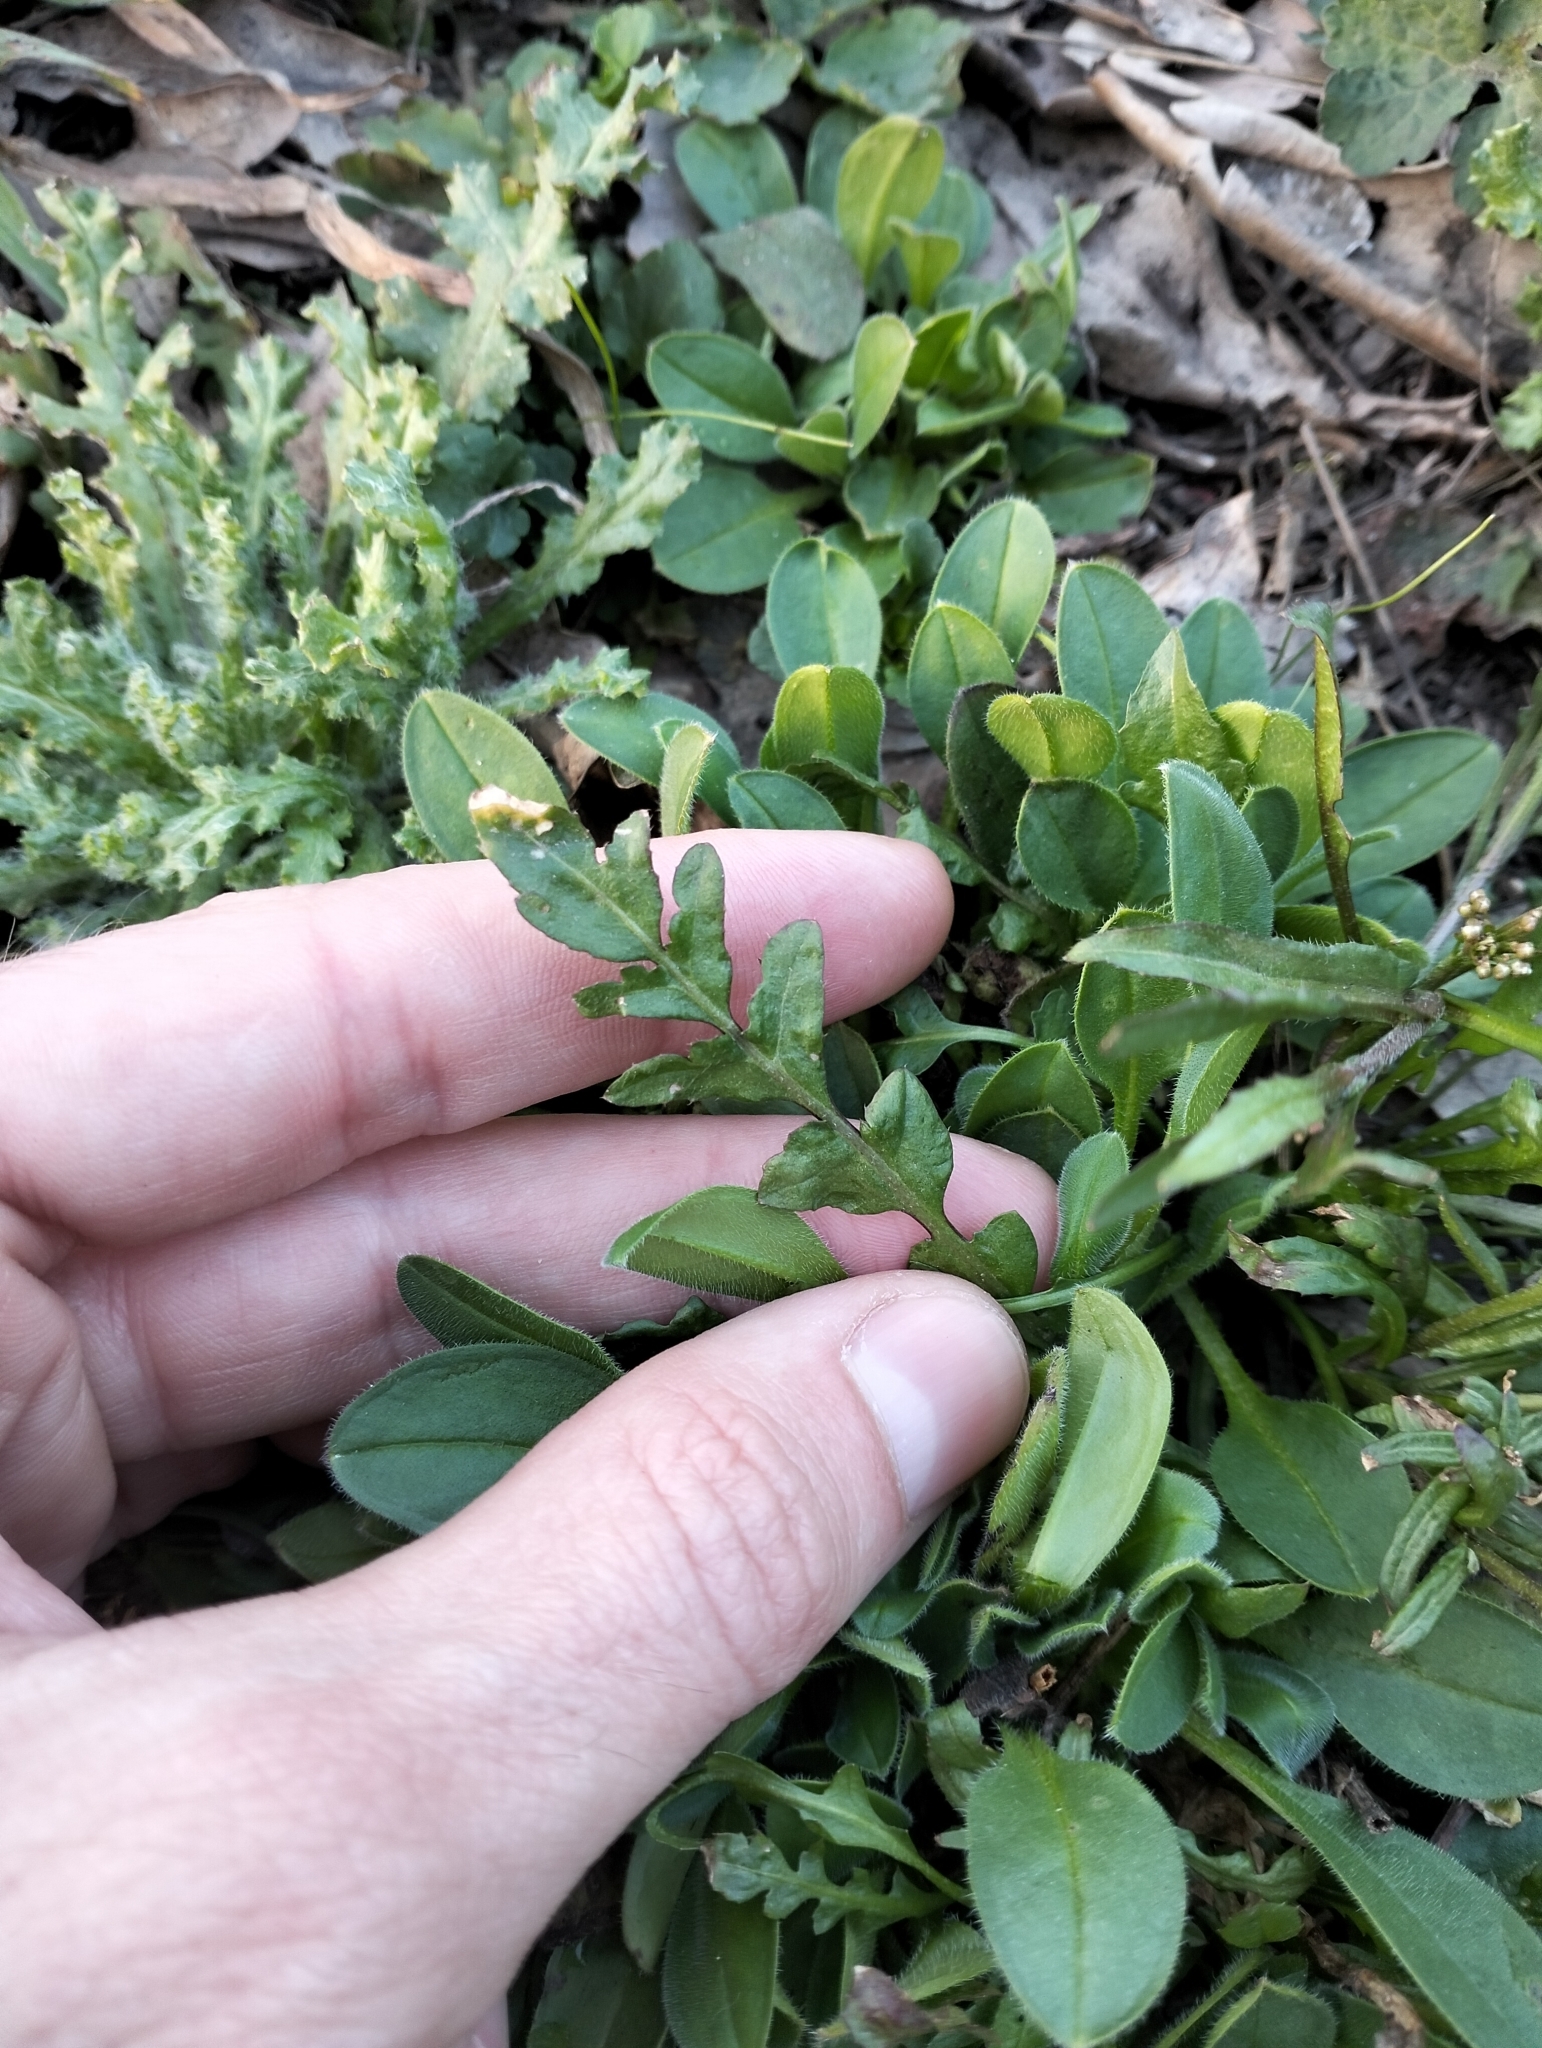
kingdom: Plantae
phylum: Tracheophyta
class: Magnoliopsida
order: Brassicales
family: Brassicaceae
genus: Capsella
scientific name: Capsella bursa-pastoris
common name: Shepherd's purse
